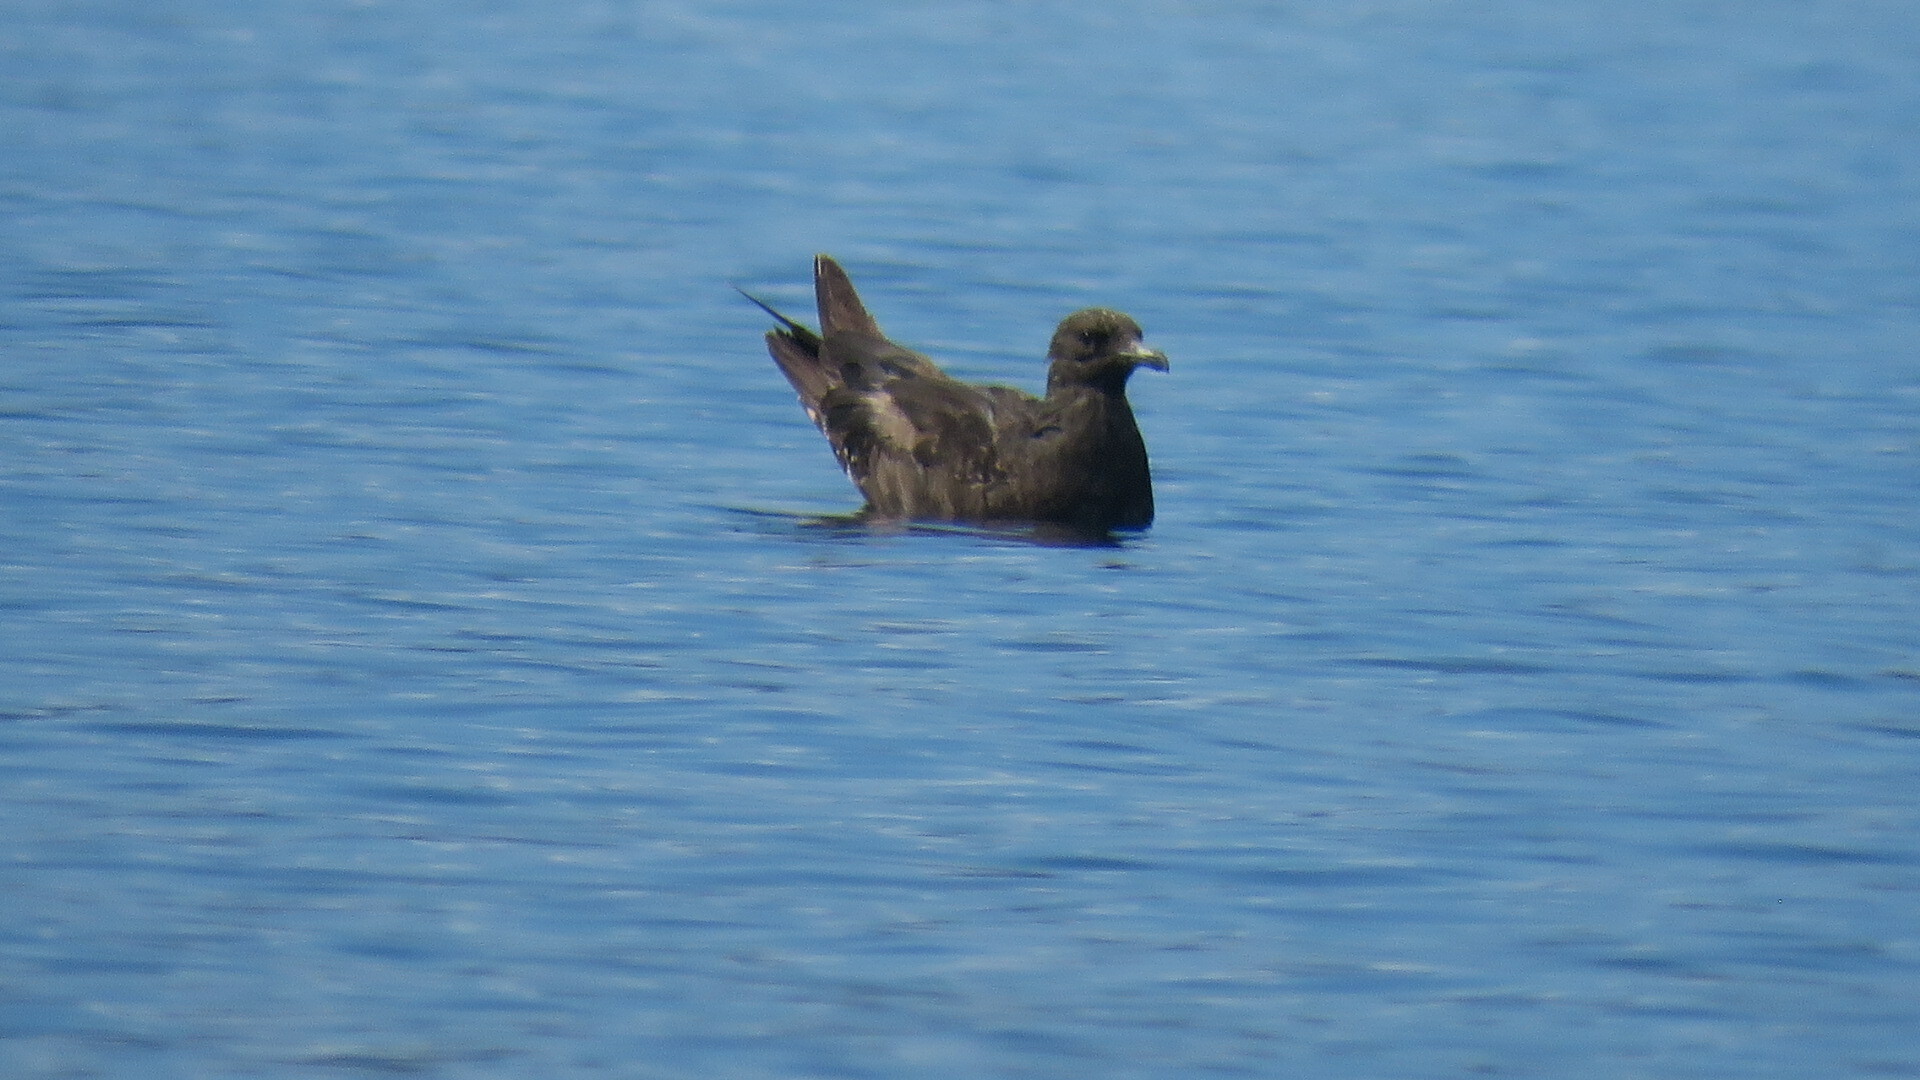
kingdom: Animalia
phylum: Chordata
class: Aves
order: Charadriiformes
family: Stercorariidae
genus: Stercorarius
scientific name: Stercorarius pomarinus
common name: Pomarine jaeger
